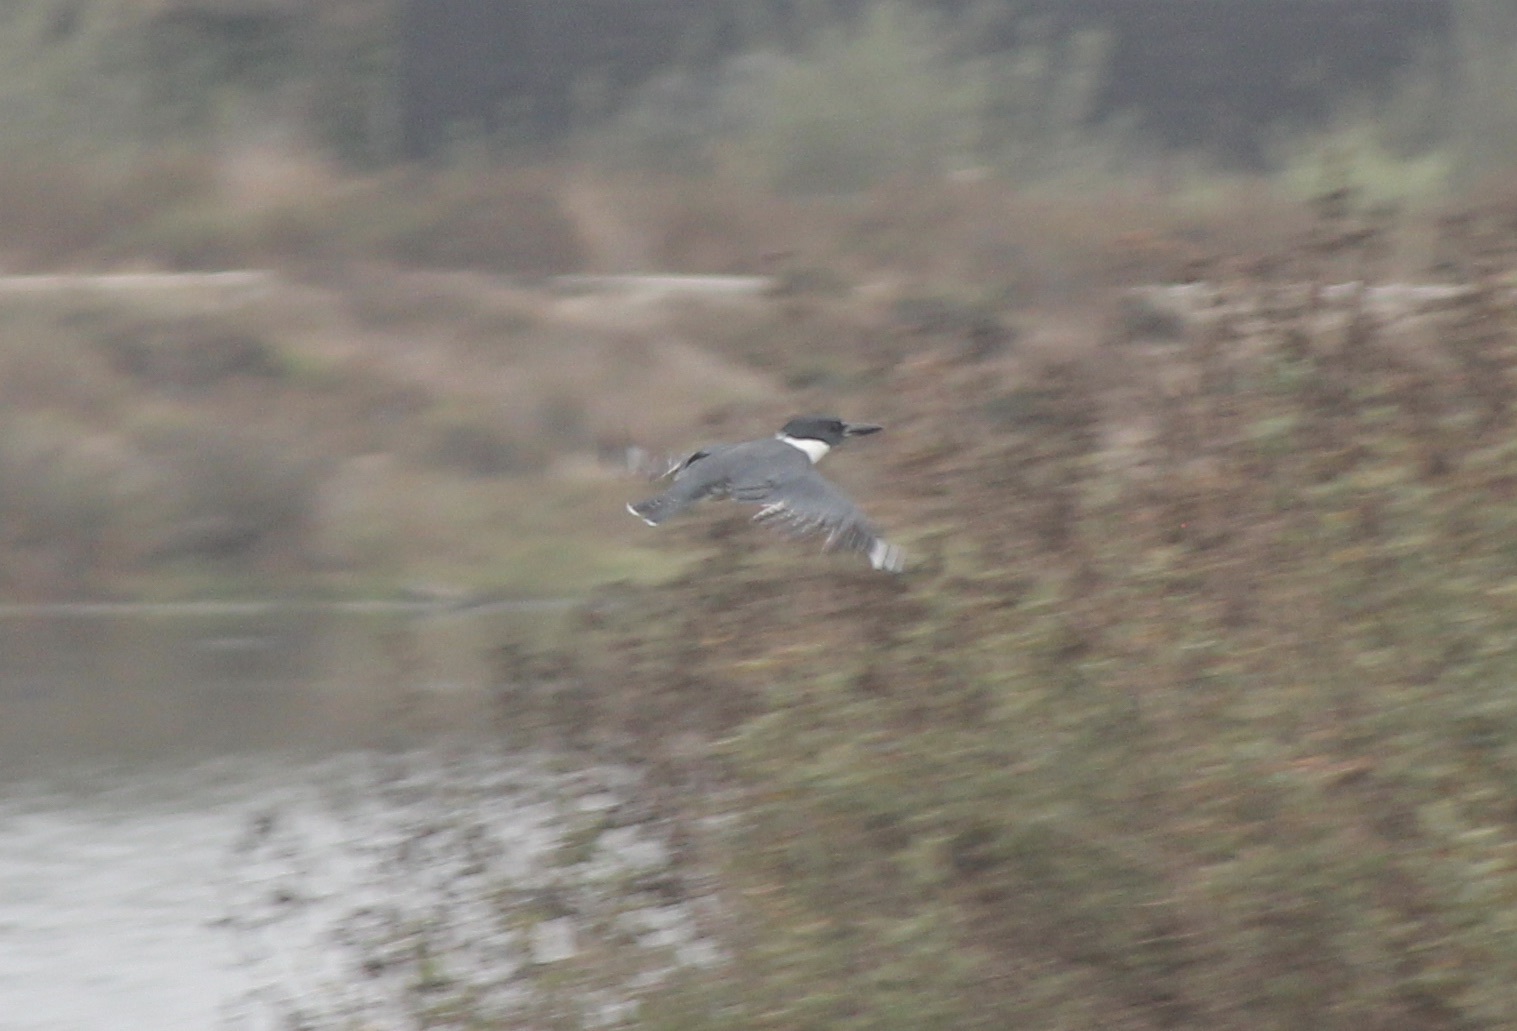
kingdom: Animalia
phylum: Chordata
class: Aves
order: Coraciiformes
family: Alcedinidae
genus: Megaceryle
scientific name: Megaceryle alcyon
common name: Belted kingfisher
